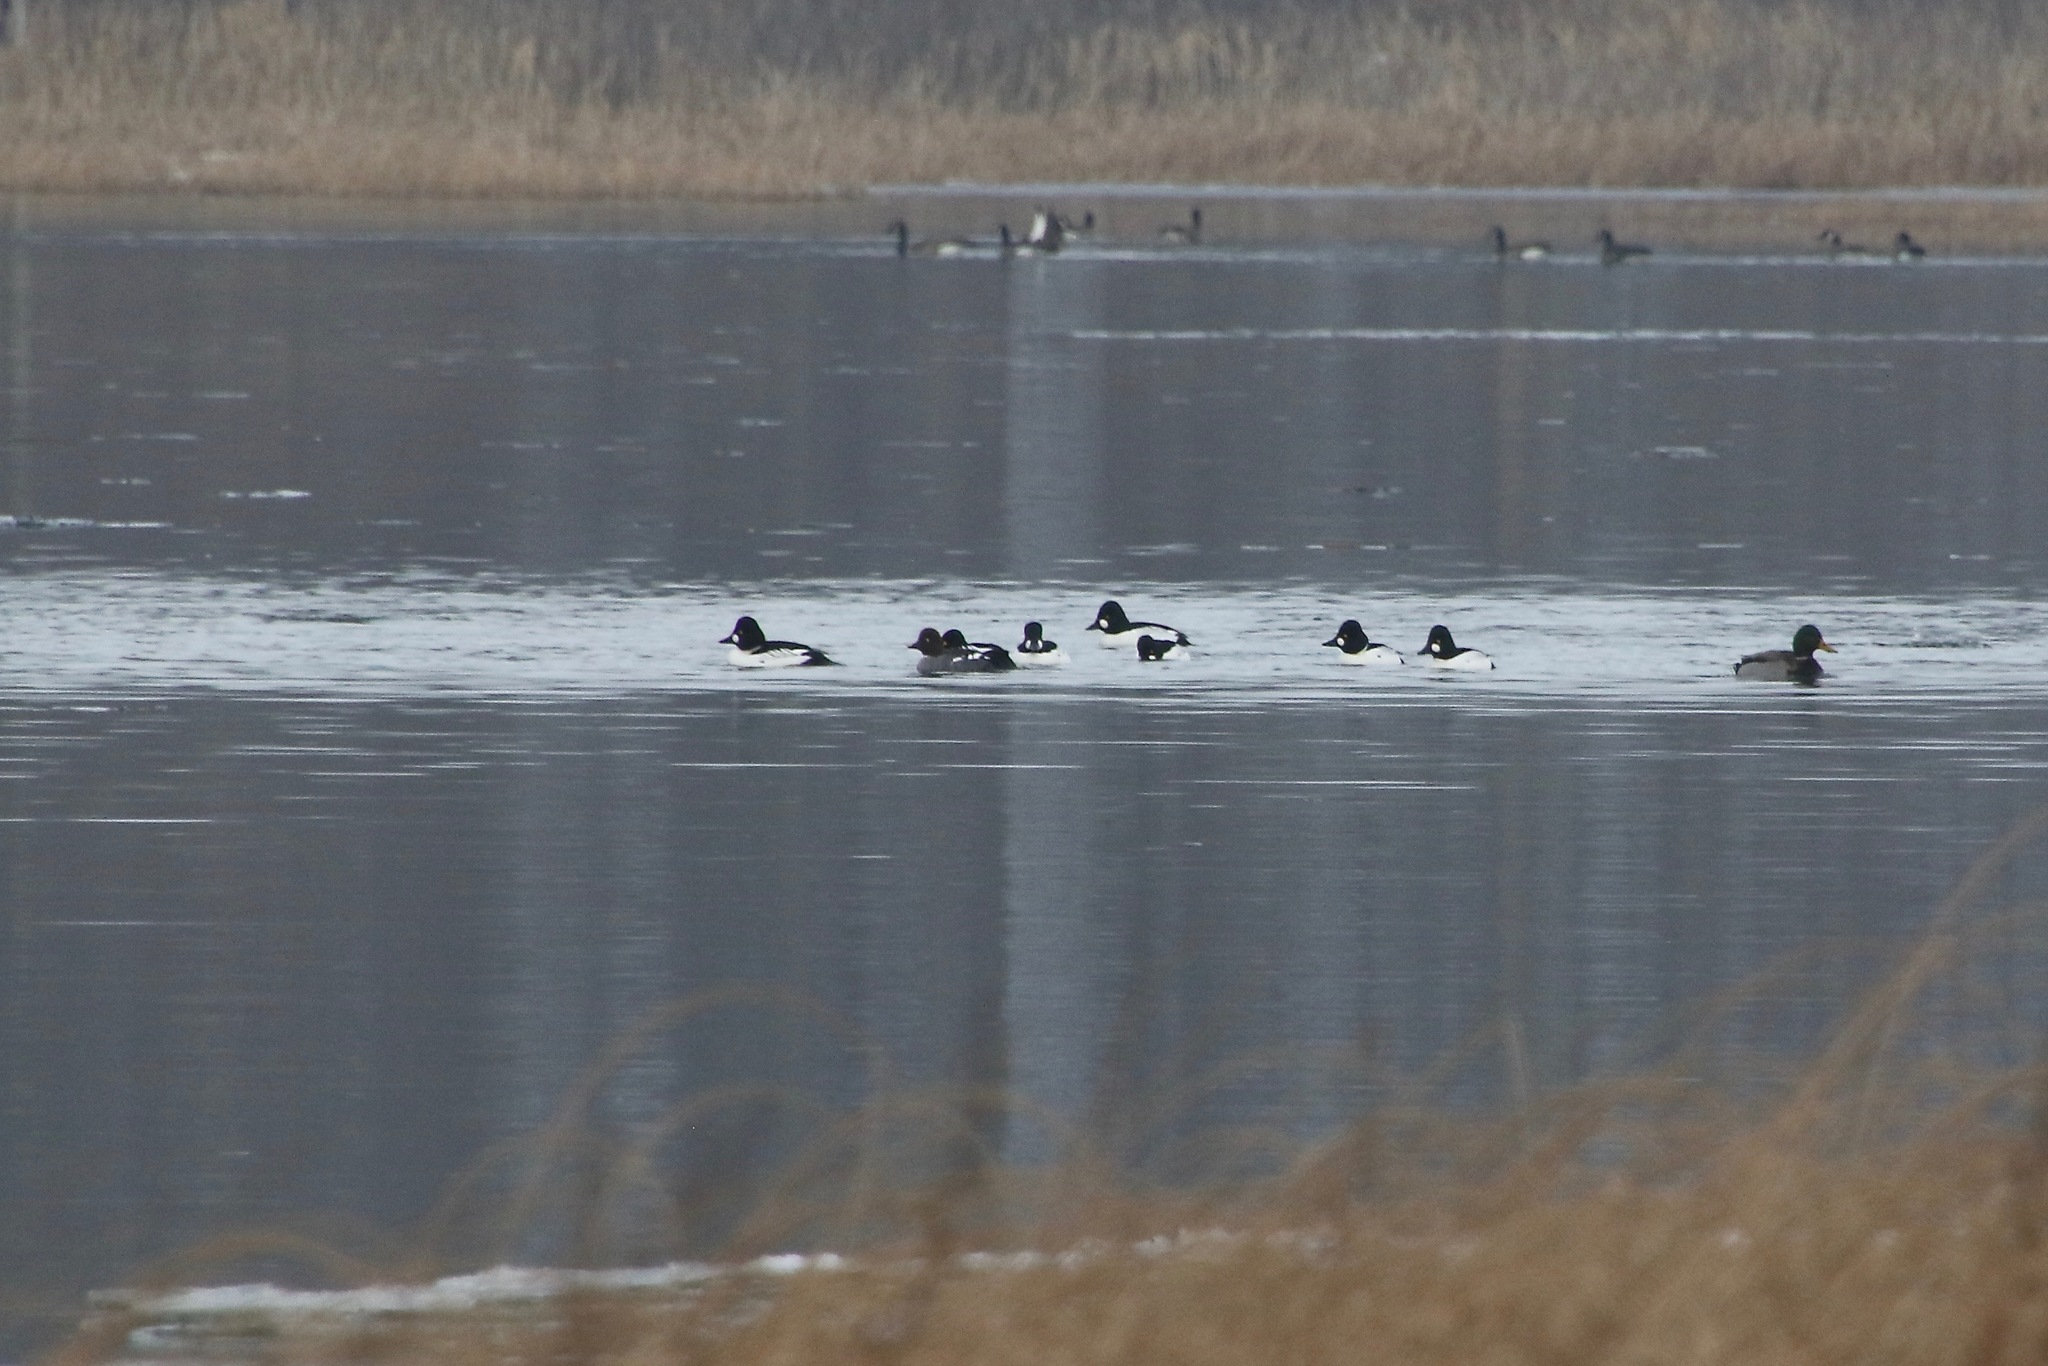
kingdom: Animalia
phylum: Chordata
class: Aves
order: Anseriformes
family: Anatidae
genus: Bucephala
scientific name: Bucephala clangula
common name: Common goldeneye
